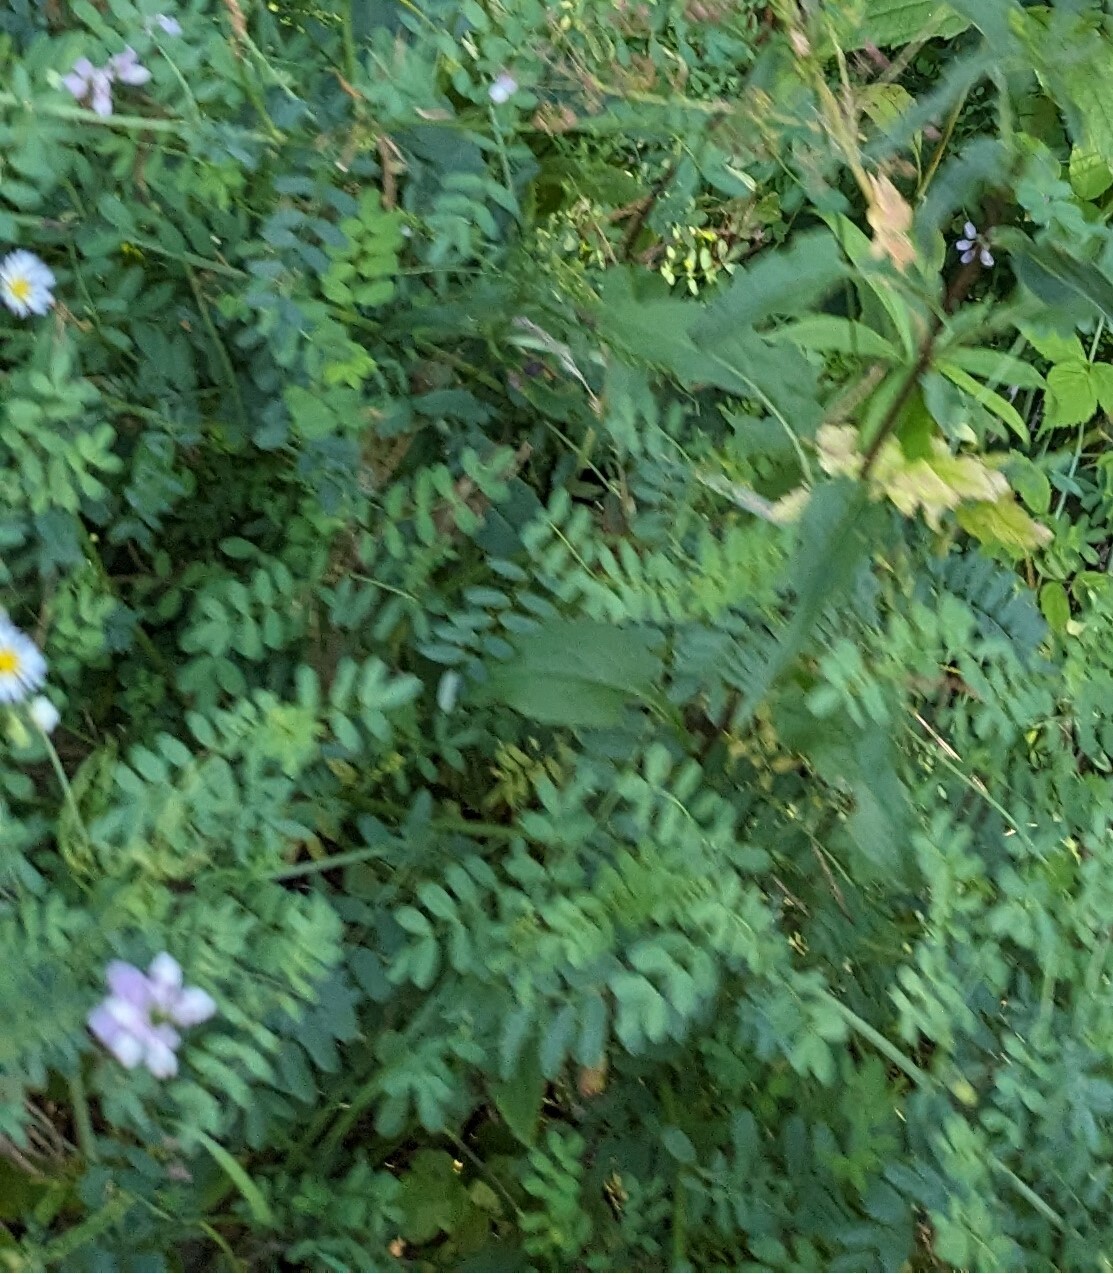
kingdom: Plantae
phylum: Tracheophyta
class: Magnoliopsida
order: Fabales
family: Fabaceae
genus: Coronilla
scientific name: Coronilla varia
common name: Crownvetch
